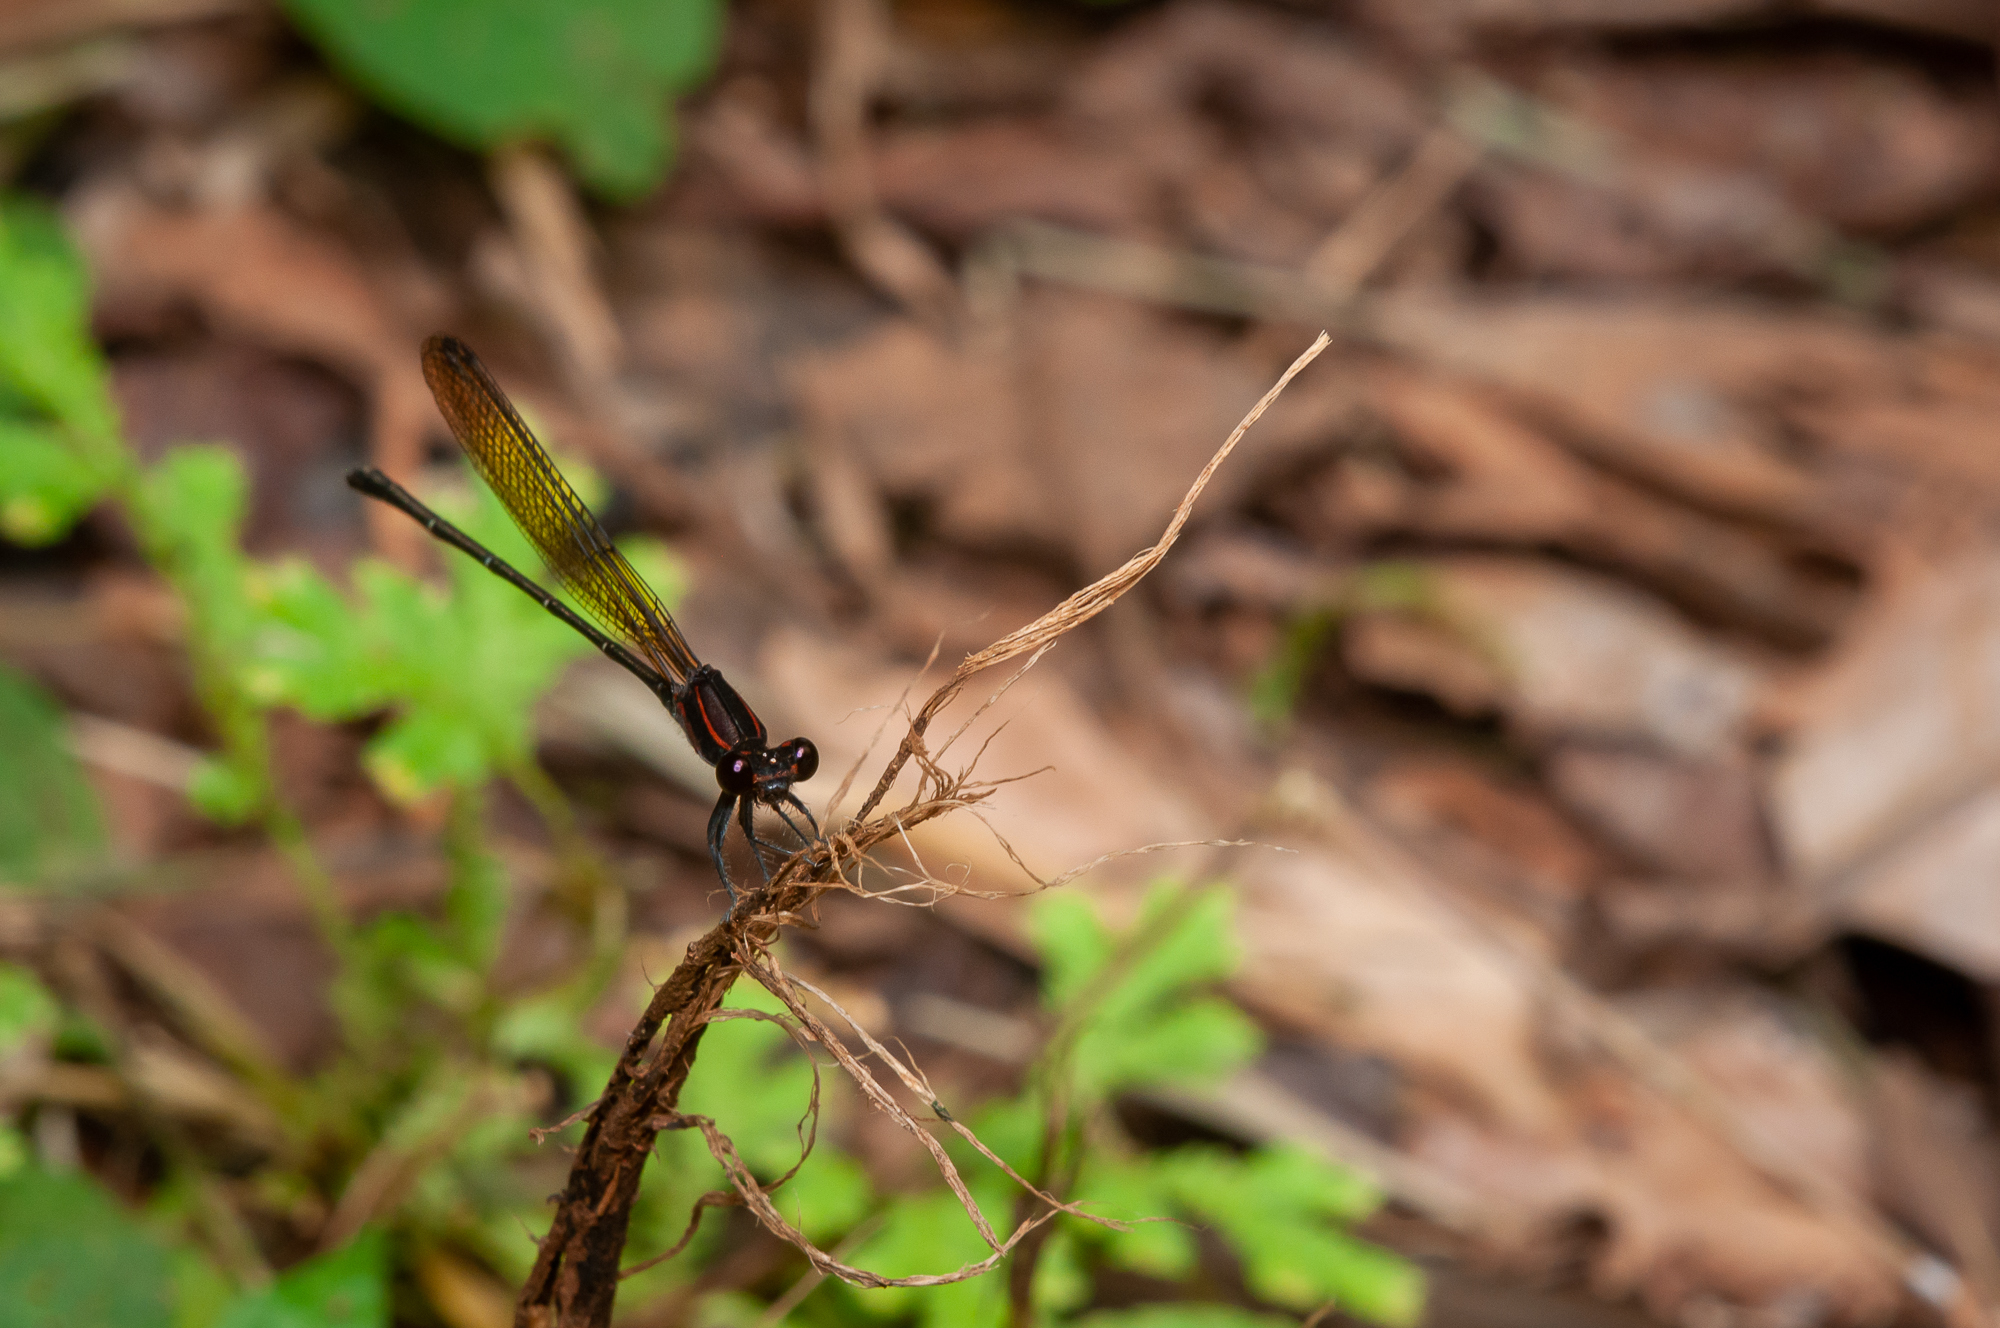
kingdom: Animalia
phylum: Arthropoda
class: Insecta
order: Odonata
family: Coenagrionidae
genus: Argia
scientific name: Argia tezpi
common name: Tezpi dancer
